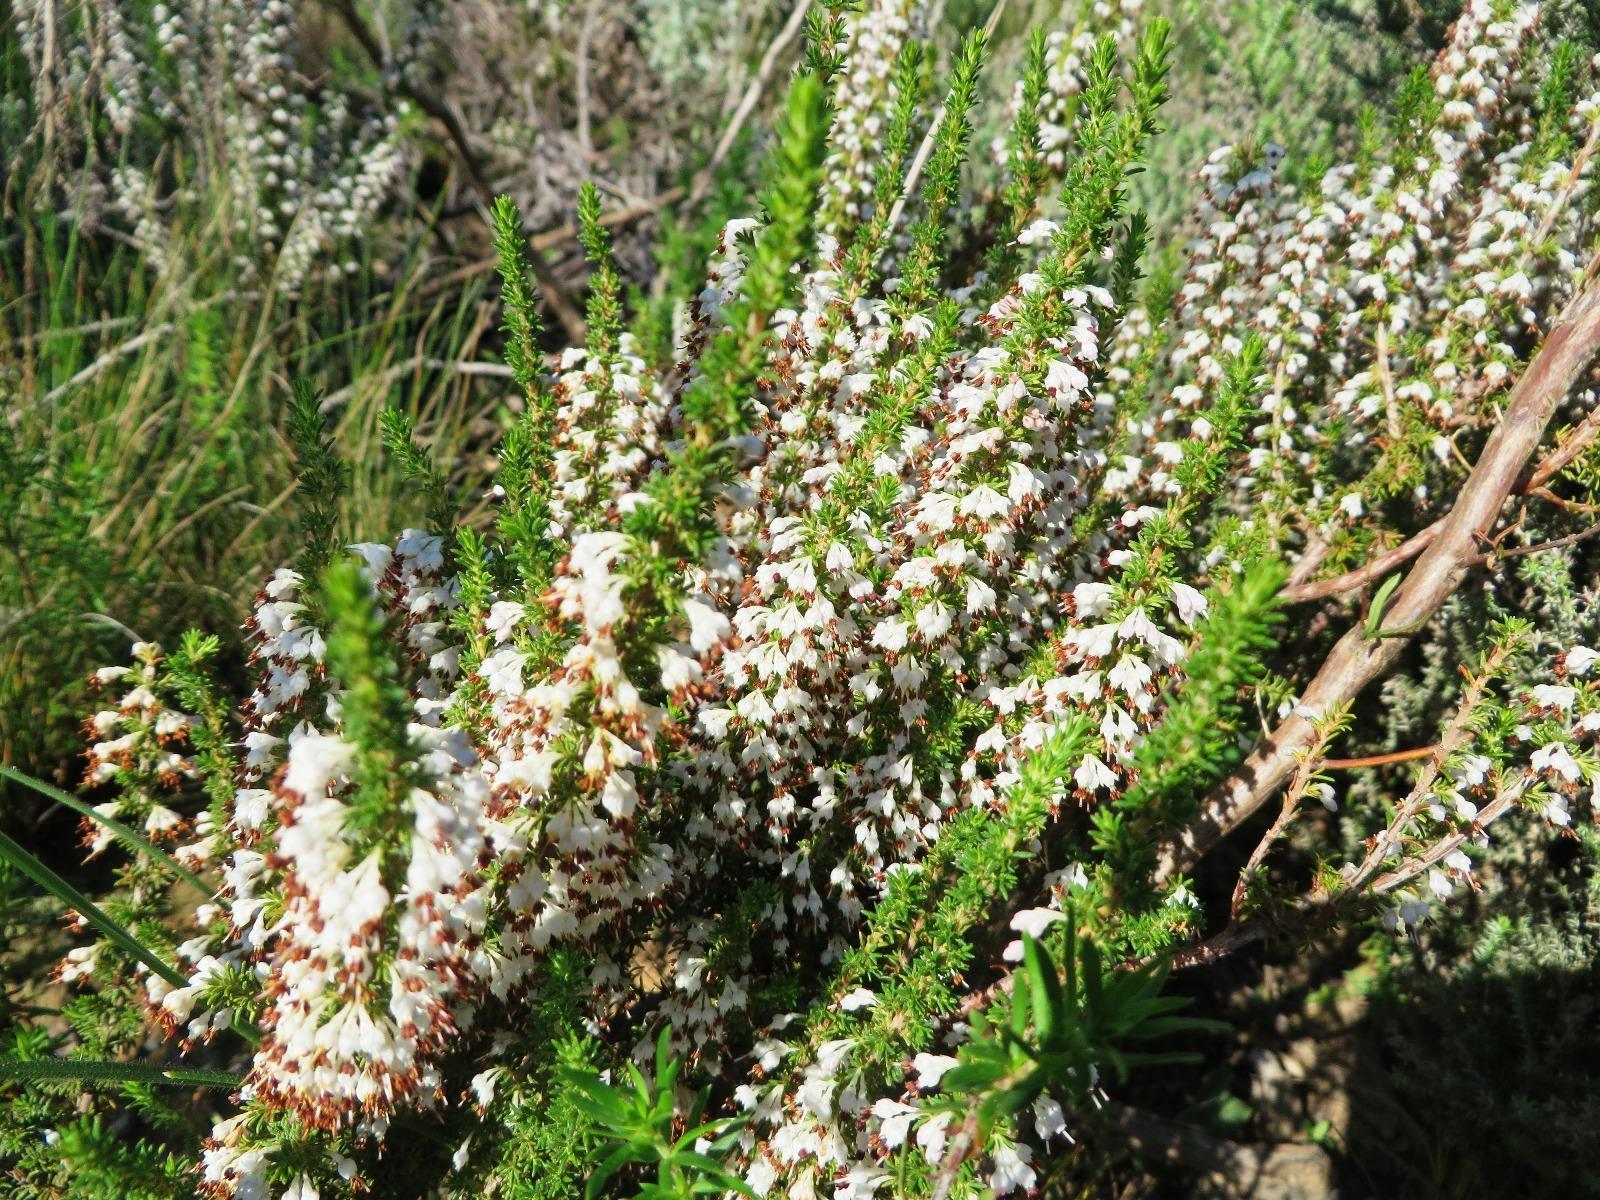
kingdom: Plantae
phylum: Tracheophyta
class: Magnoliopsida
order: Ericales
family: Ericaceae
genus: Erica
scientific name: Erica imbricata
